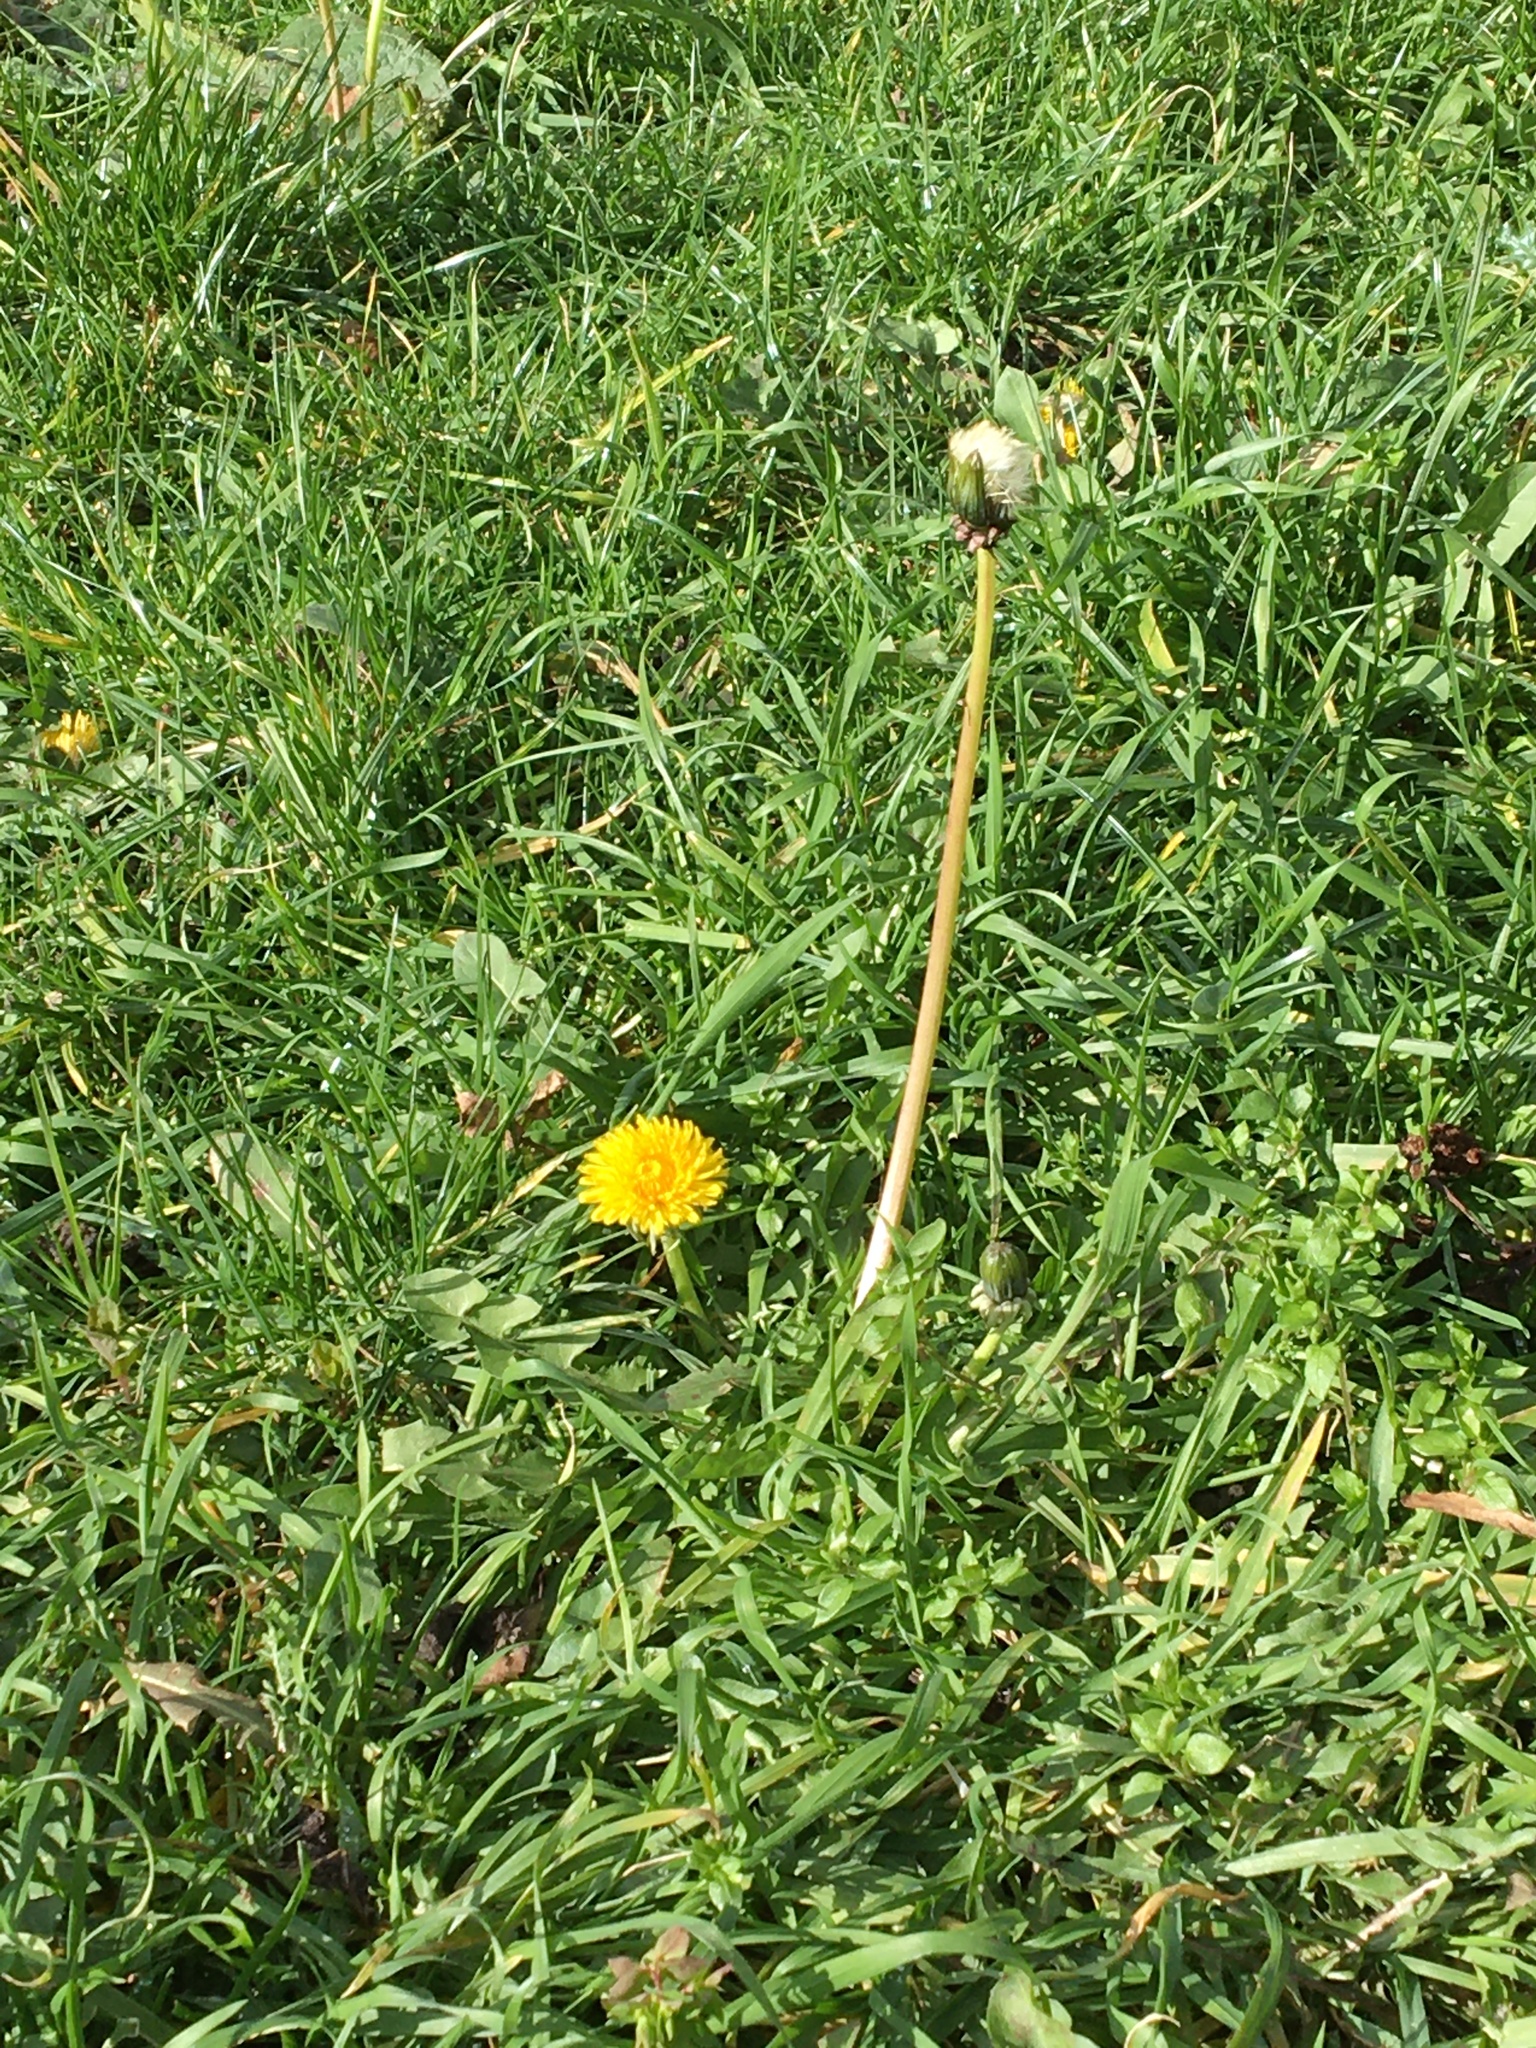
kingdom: Plantae
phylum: Tracheophyta
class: Magnoliopsida
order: Asterales
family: Asteraceae
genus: Taraxacum
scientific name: Taraxacum officinale
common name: Common dandelion
